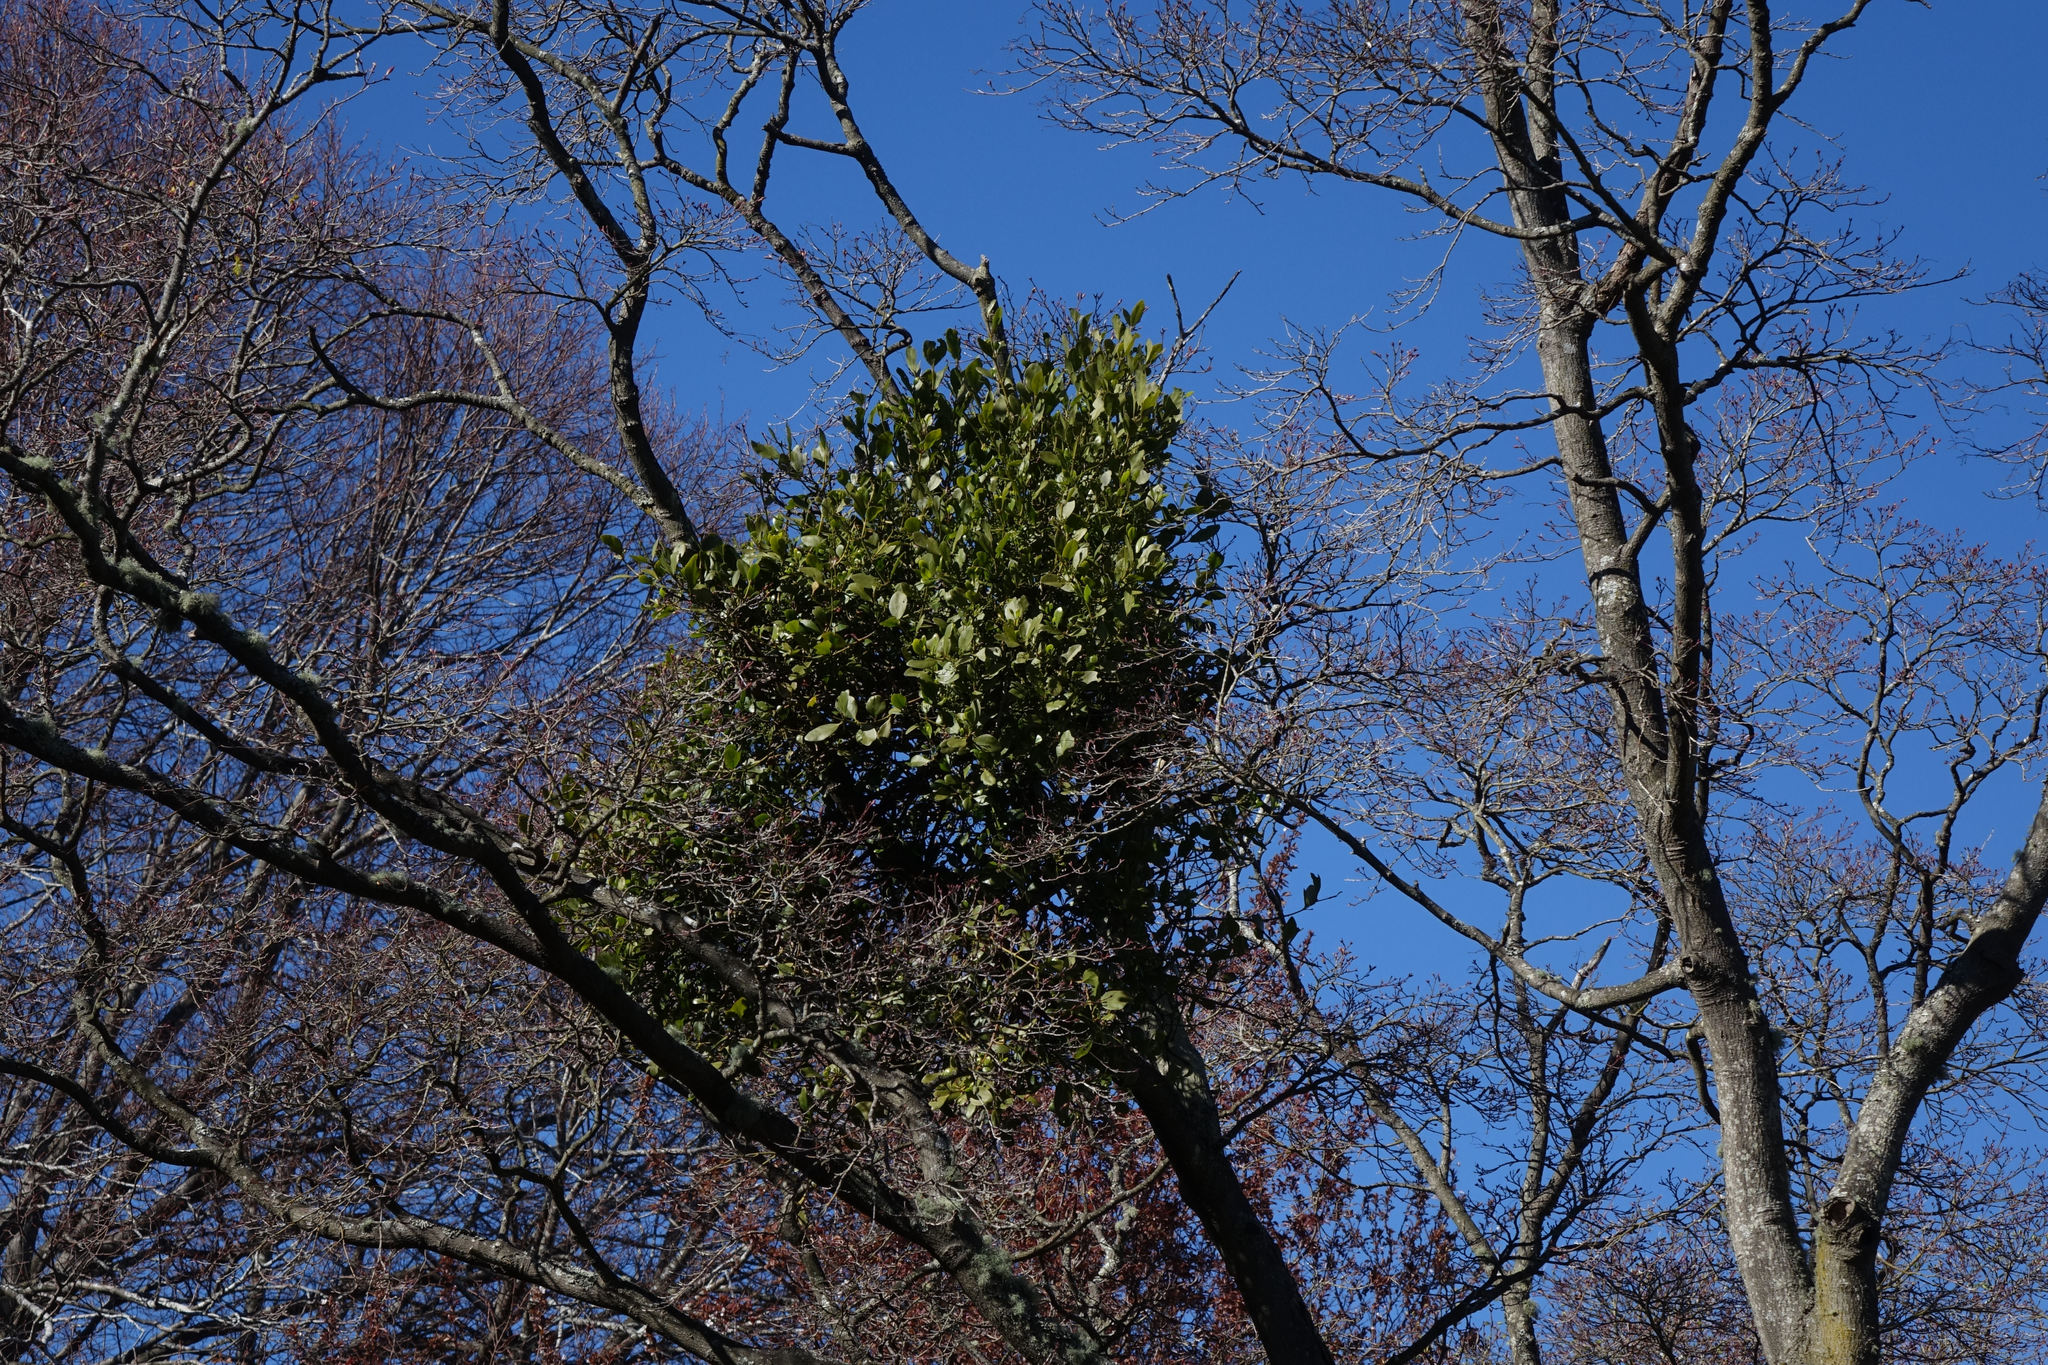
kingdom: Plantae
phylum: Tracheophyta
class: Magnoliopsida
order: Santalales
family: Loranthaceae
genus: Ileostylus
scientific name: Ileostylus micranthus
